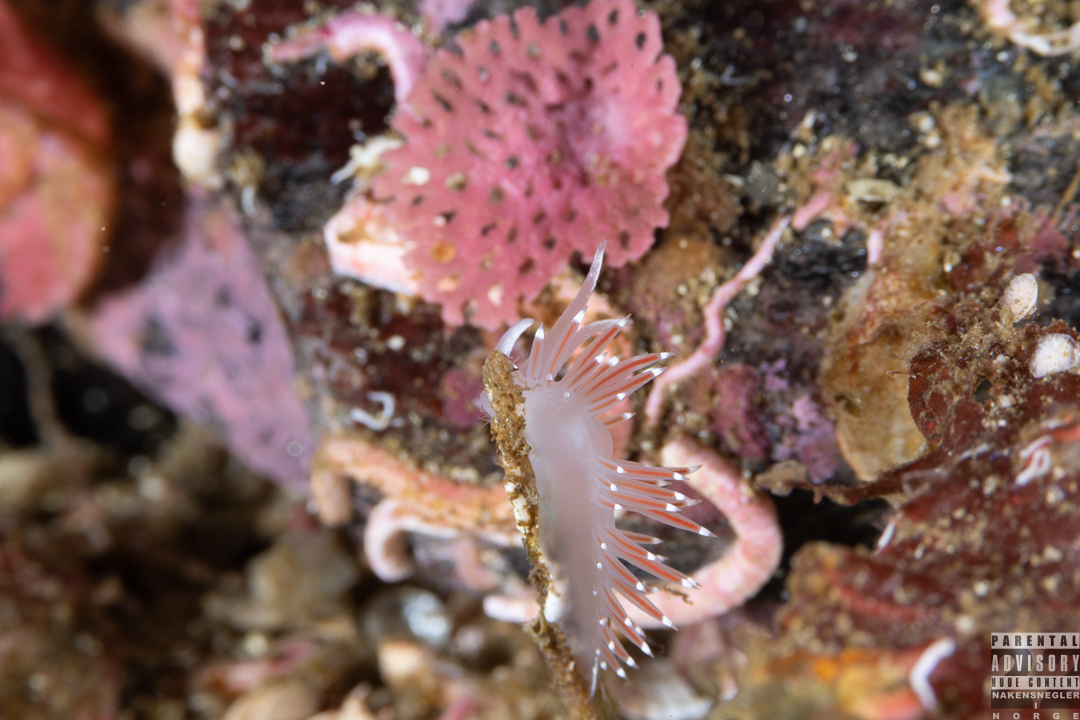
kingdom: Animalia
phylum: Mollusca
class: Gastropoda
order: Nudibranchia
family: Coryphellidae
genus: Coryphella
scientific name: Coryphella verrucosa
